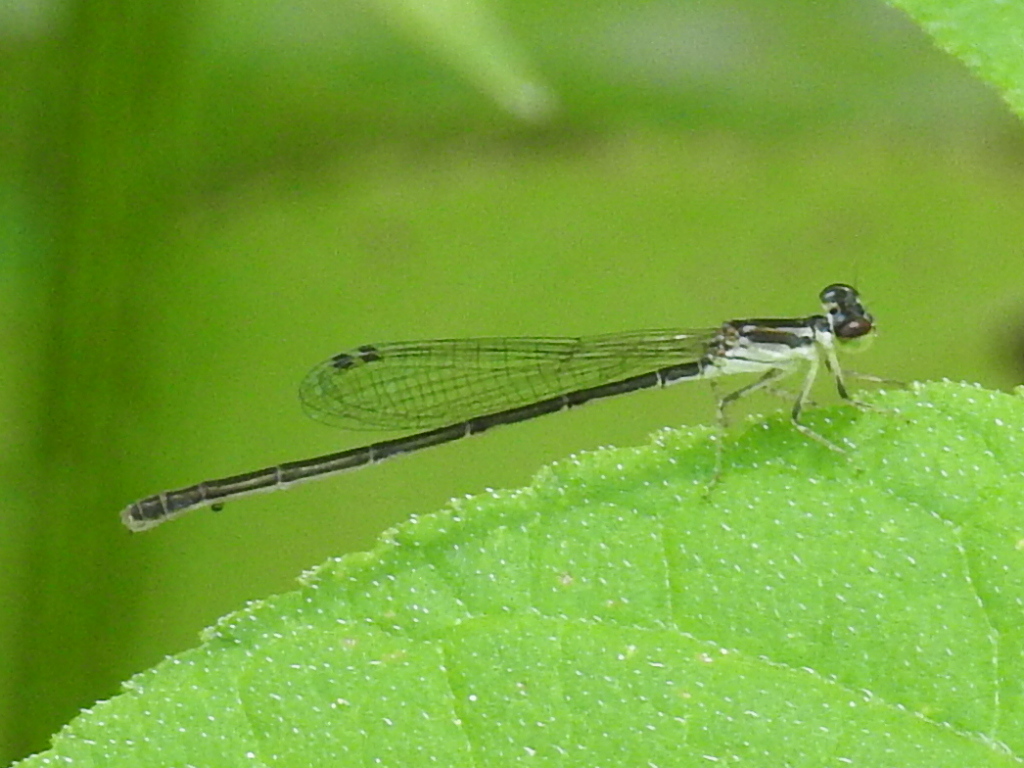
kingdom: Animalia
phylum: Arthropoda
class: Insecta
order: Odonata
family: Coenagrionidae
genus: Ischnura
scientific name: Ischnura posita
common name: Fragile forktail
